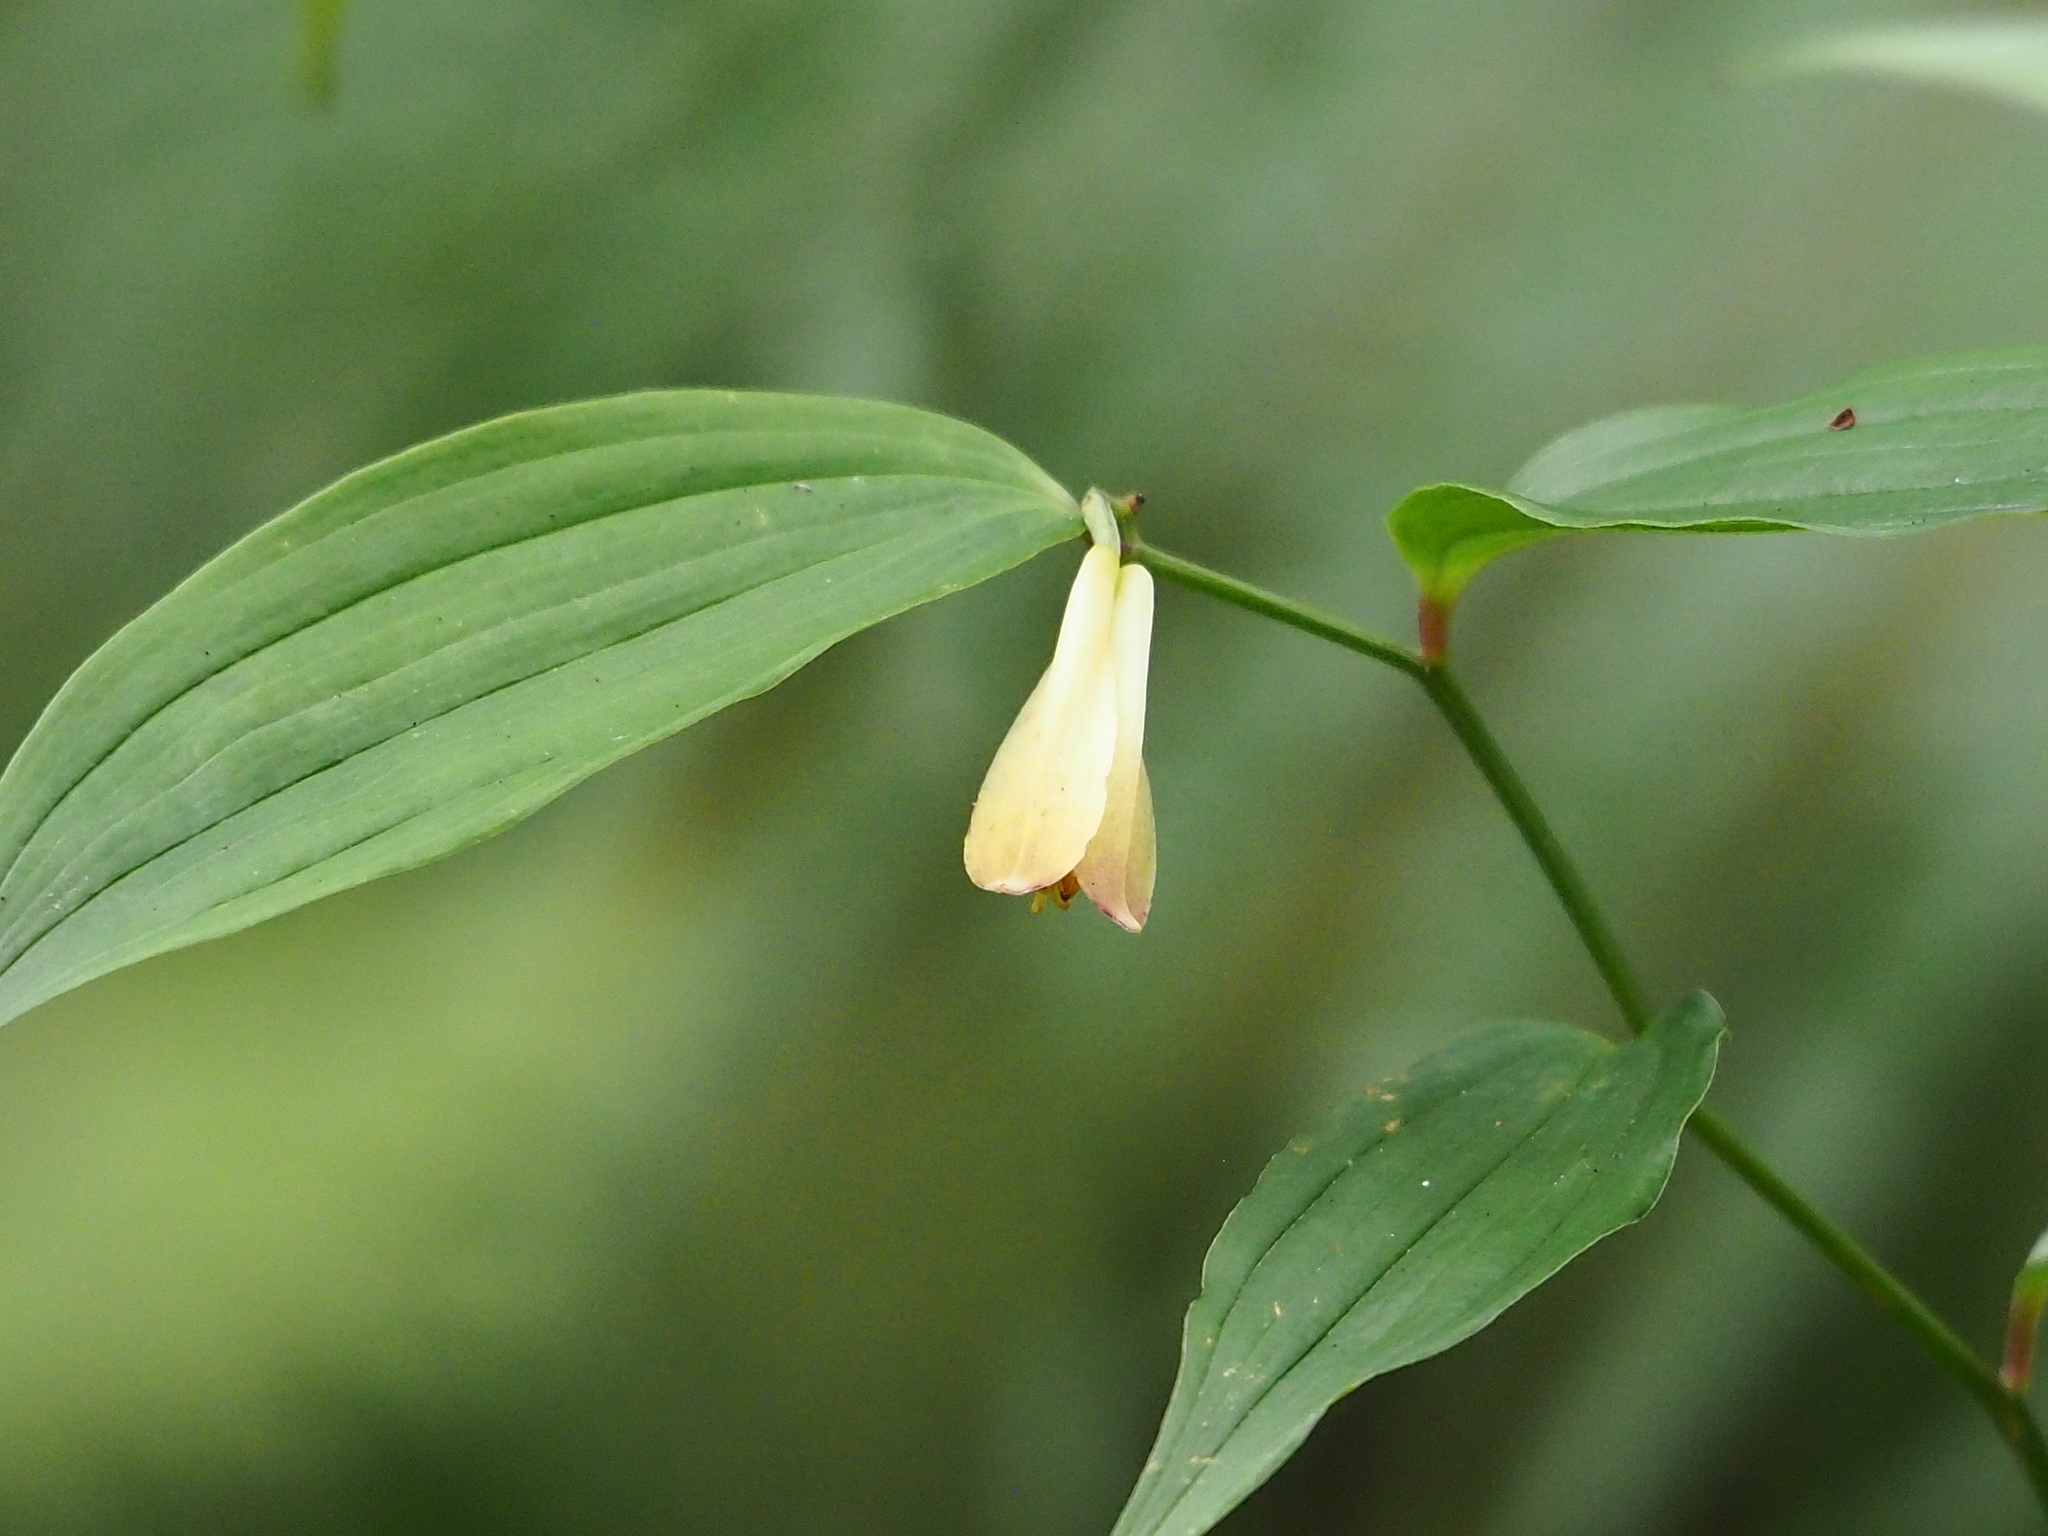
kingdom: Plantae
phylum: Tracheophyta
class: Liliopsida
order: Liliales
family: Colchicaceae
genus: Disporum
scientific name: Disporum kawakamii
